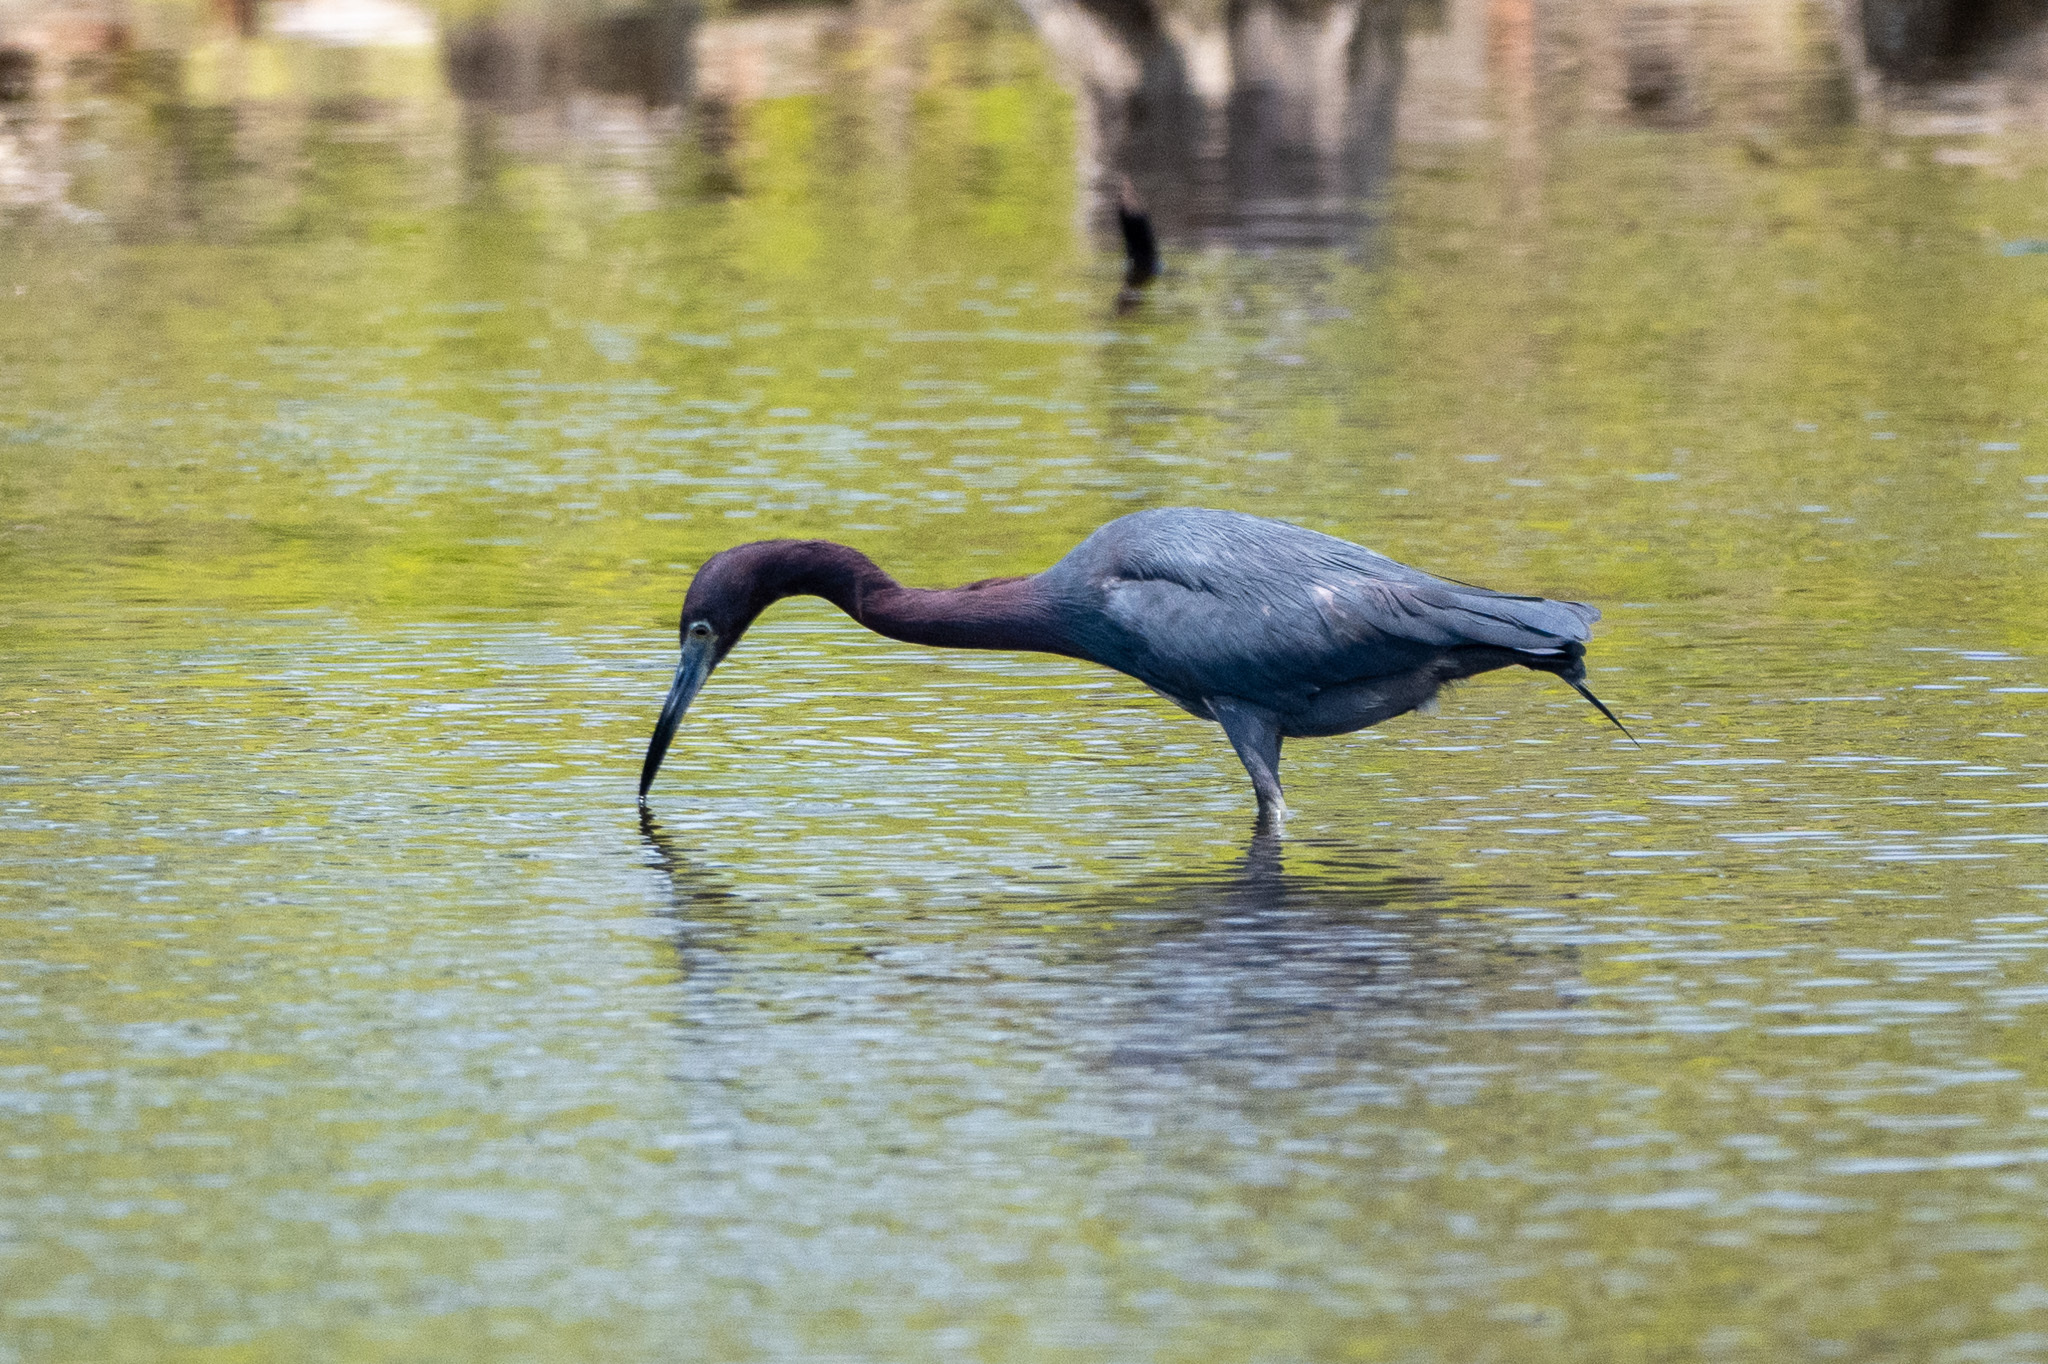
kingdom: Animalia
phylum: Chordata
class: Aves
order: Pelecaniformes
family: Ardeidae
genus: Egretta
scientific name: Egretta caerulea
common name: Little blue heron
